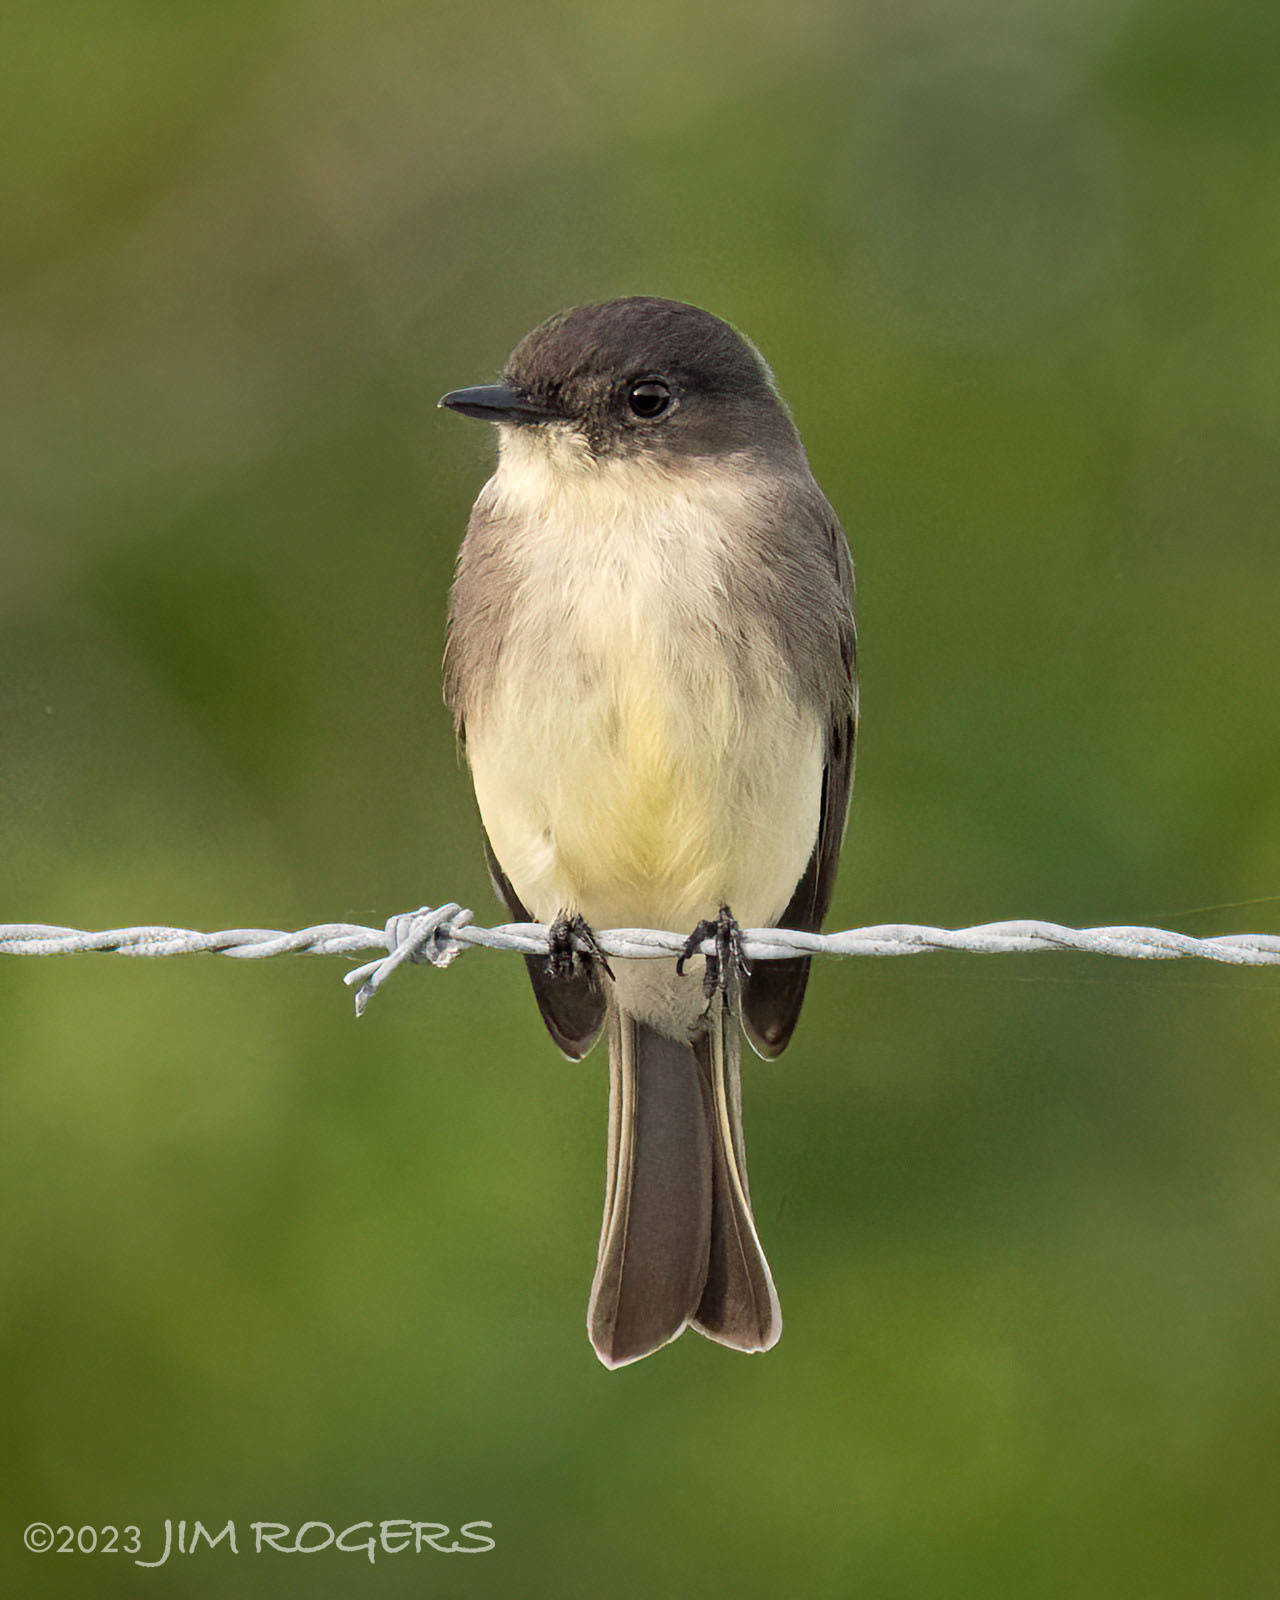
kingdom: Animalia
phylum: Chordata
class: Aves
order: Passeriformes
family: Tyrannidae
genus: Sayornis
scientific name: Sayornis phoebe
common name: Eastern phoebe
